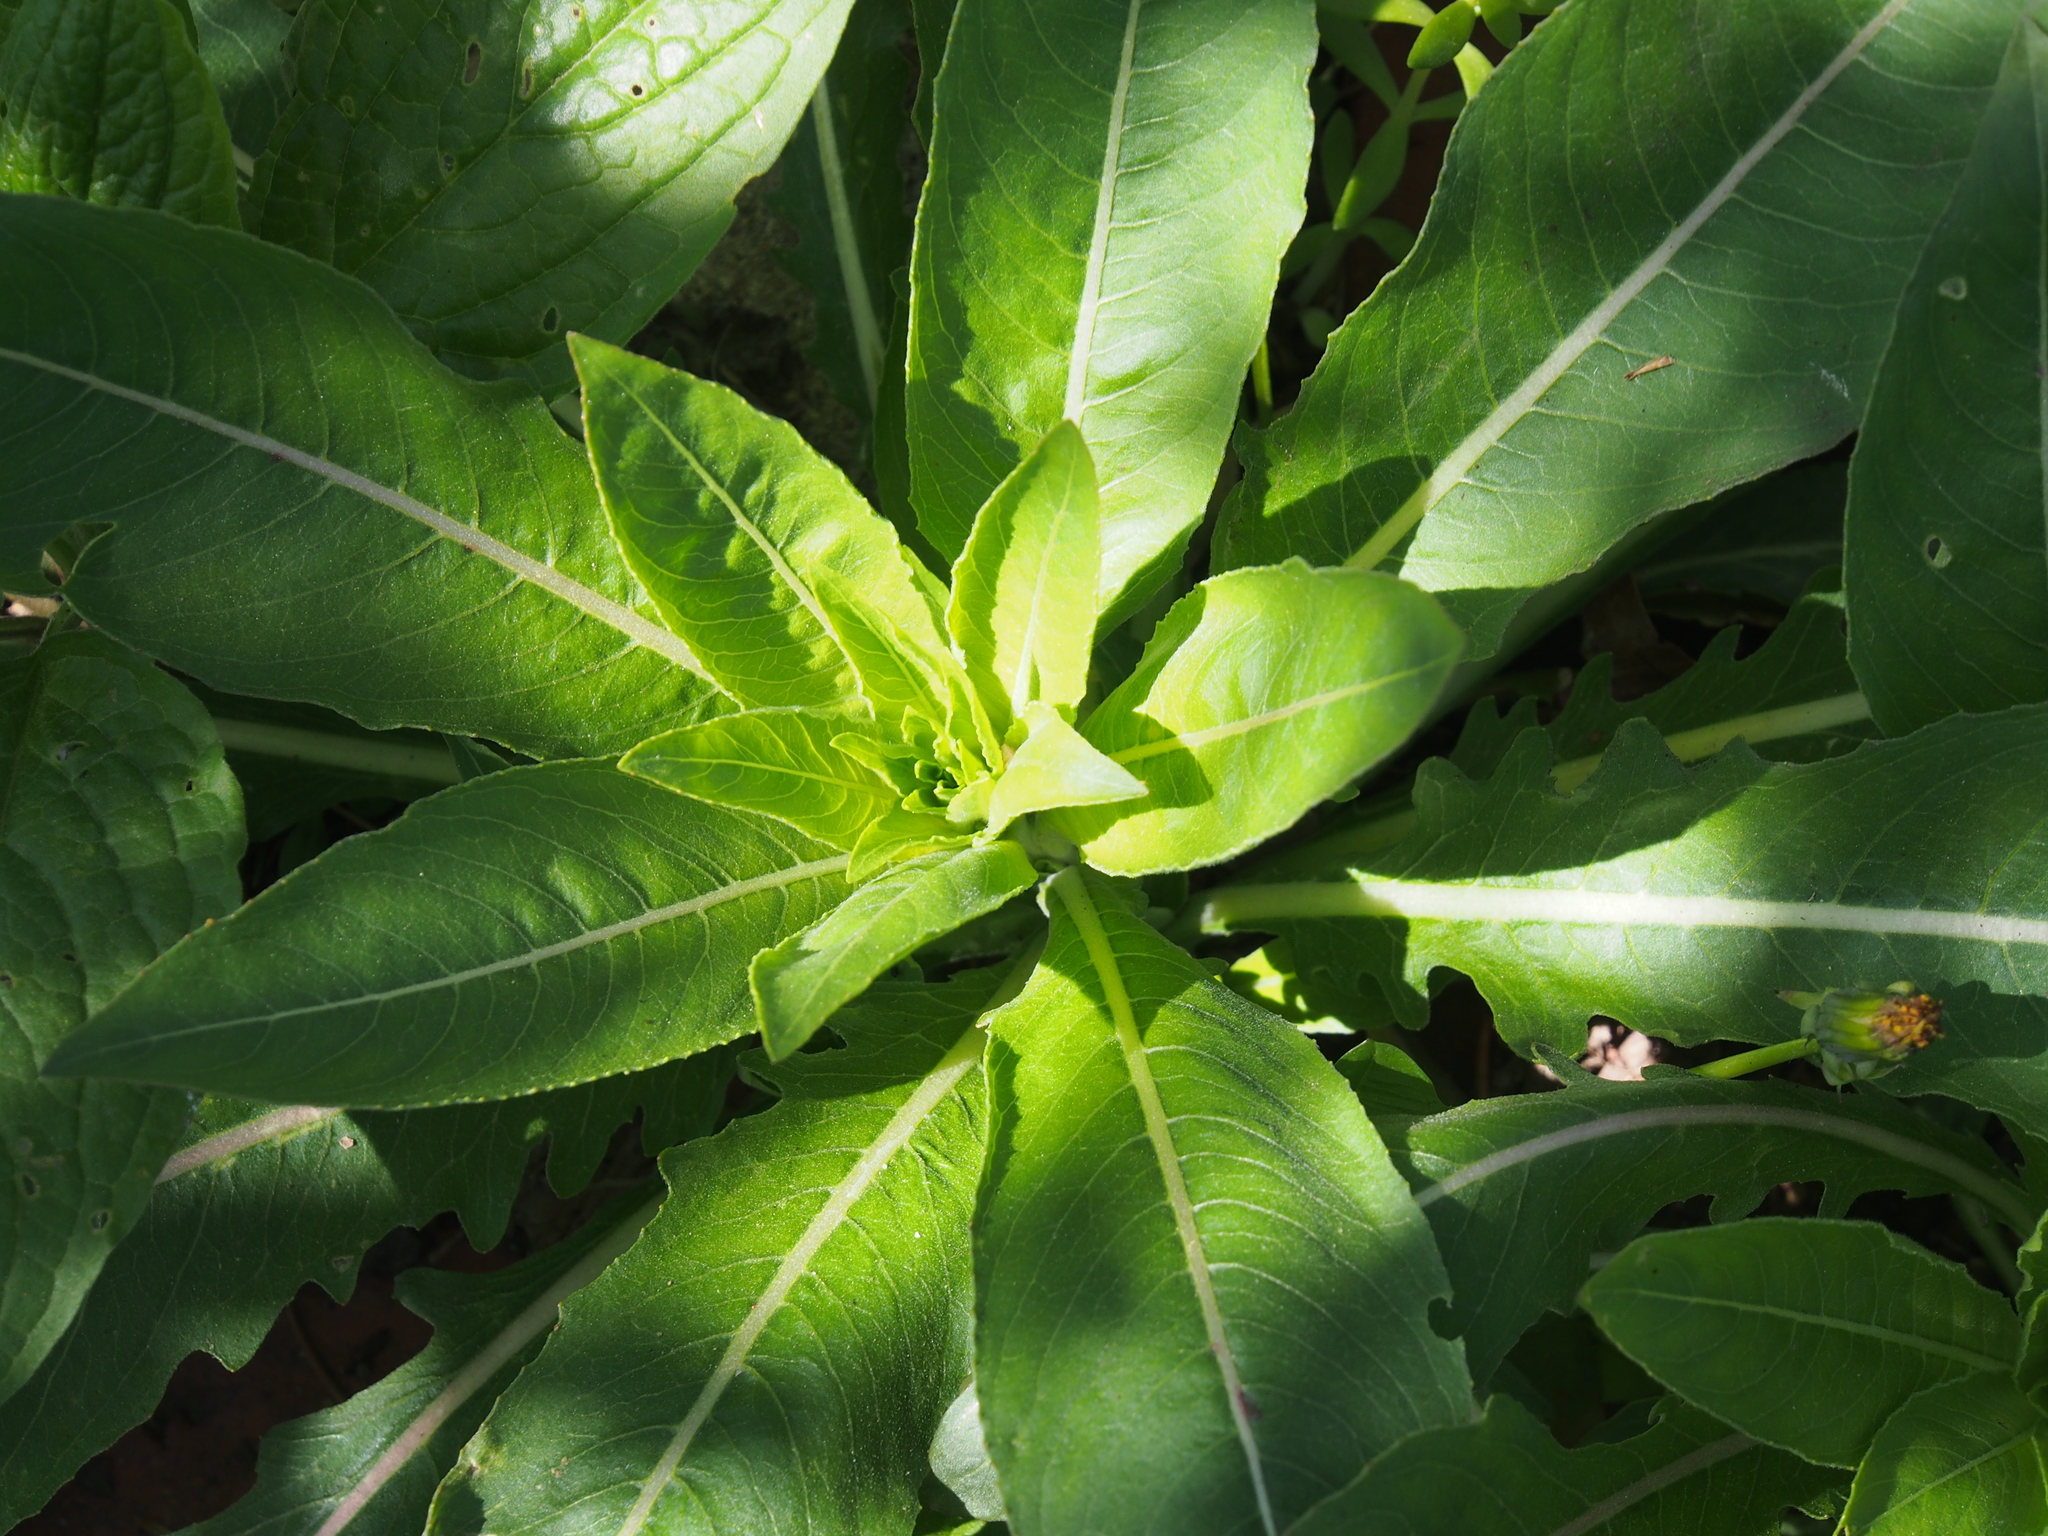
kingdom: Plantae
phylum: Tracheophyta
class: Magnoliopsida
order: Myrtales
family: Onagraceae
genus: Oenothera
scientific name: Oenothera biennis
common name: Common evening-primrose
